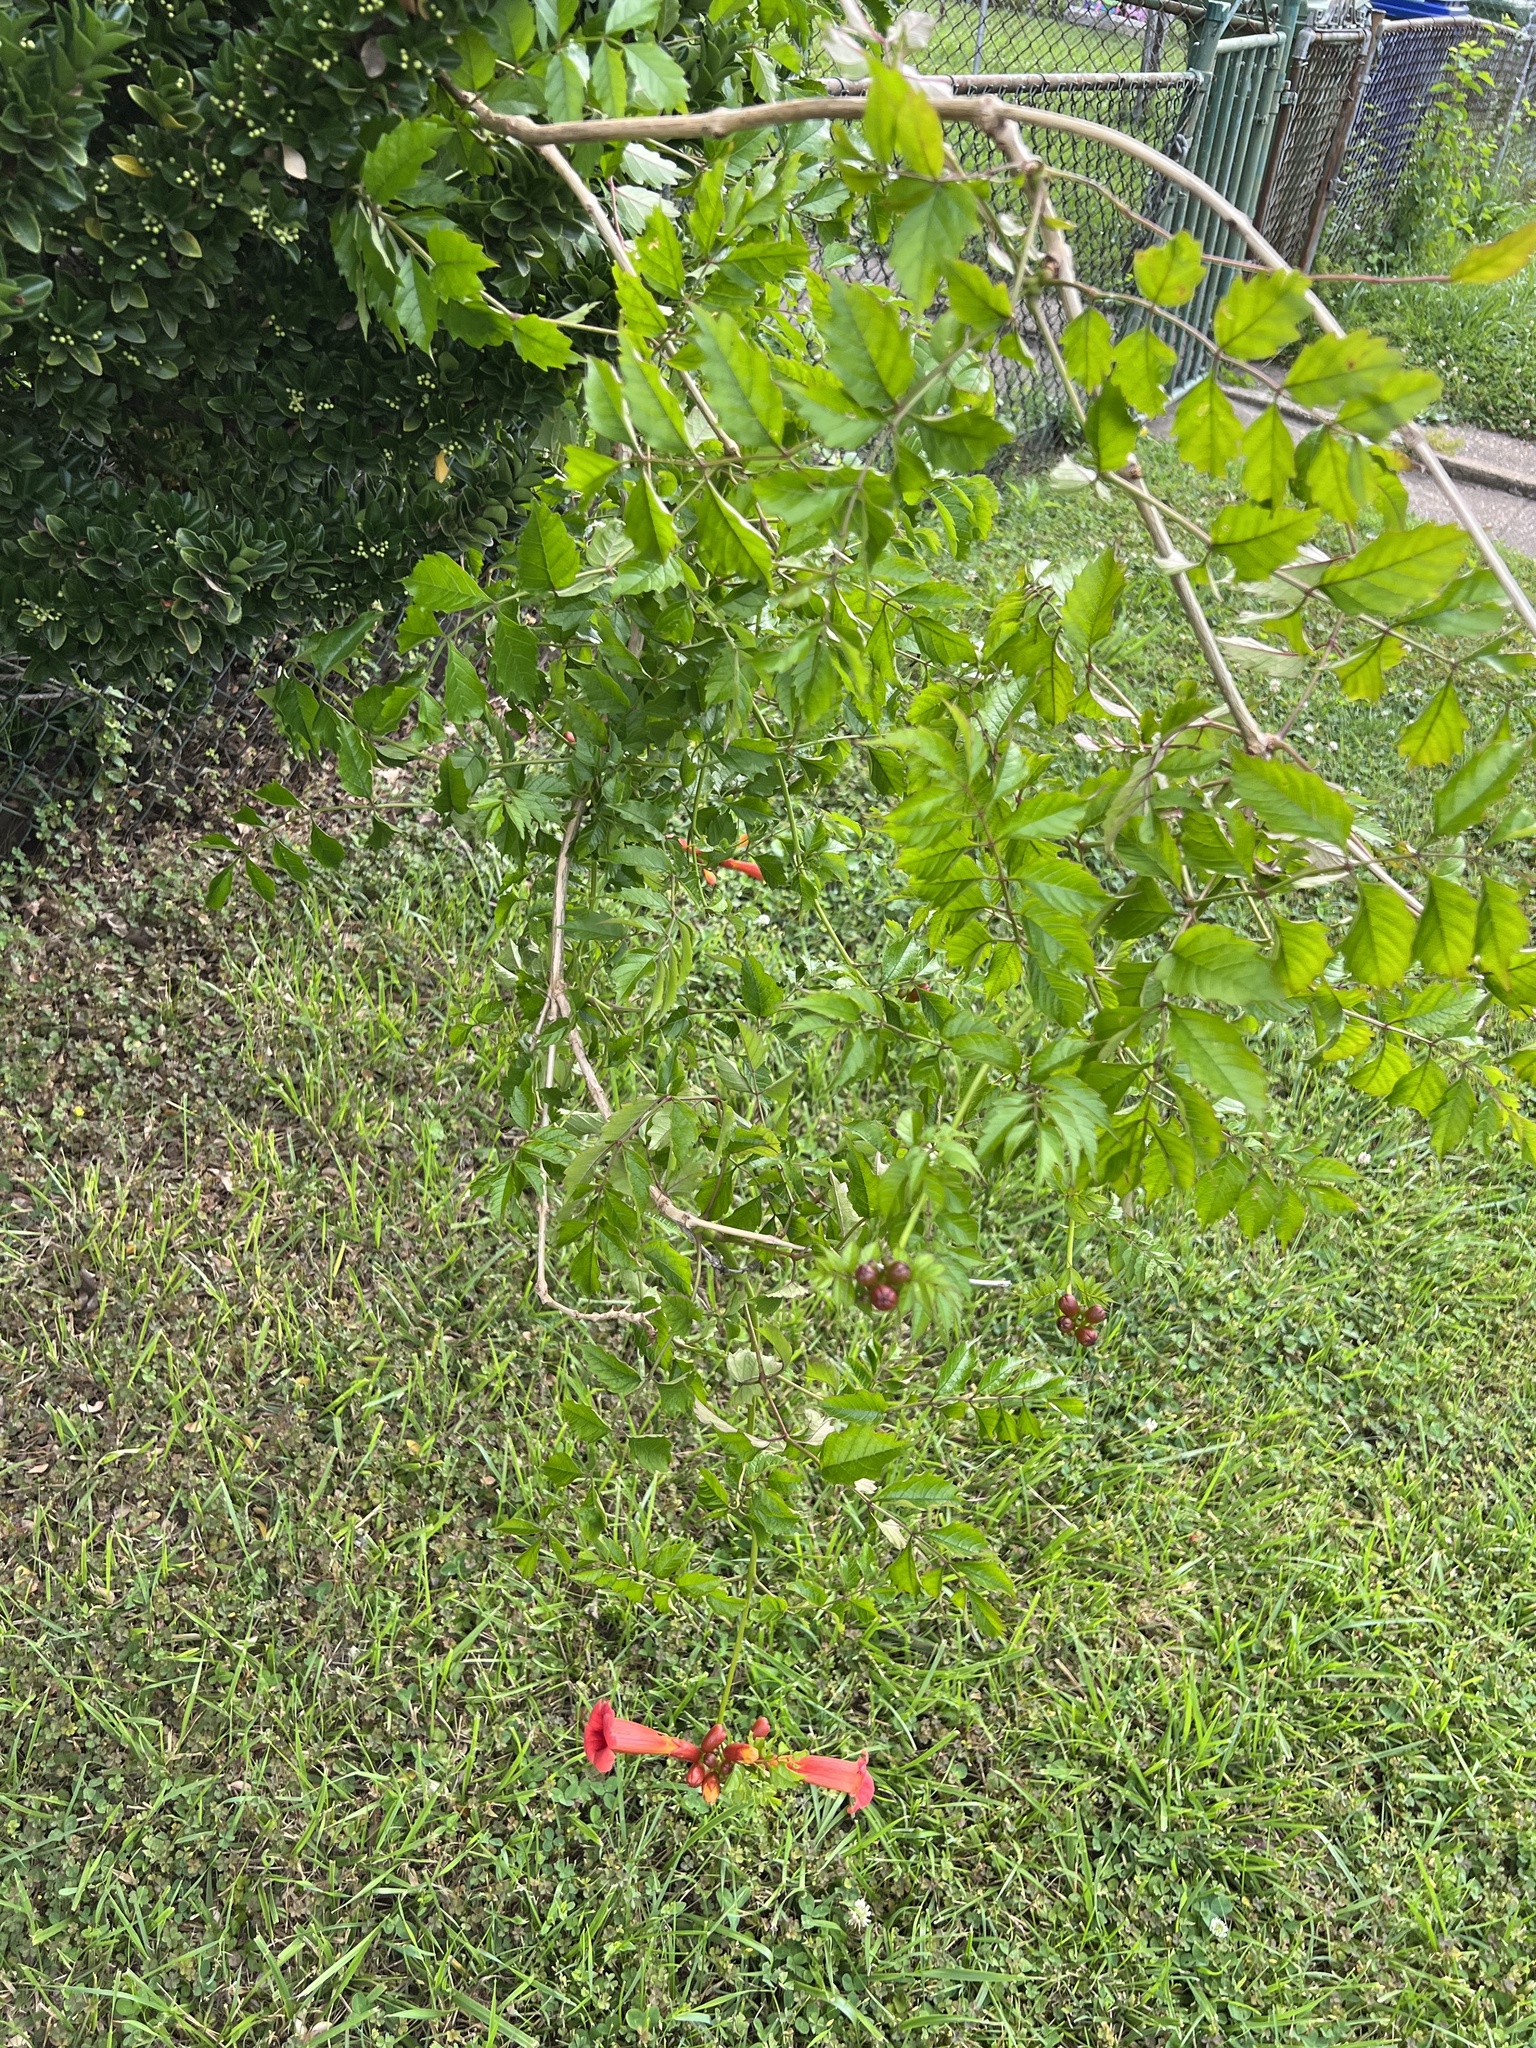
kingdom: Plantae
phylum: Tracheophyta
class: Magnoliopsida
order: Lamiales
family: Bignoniaceae
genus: Campsis
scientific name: Campsis radicans
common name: Trumpet-creeper
